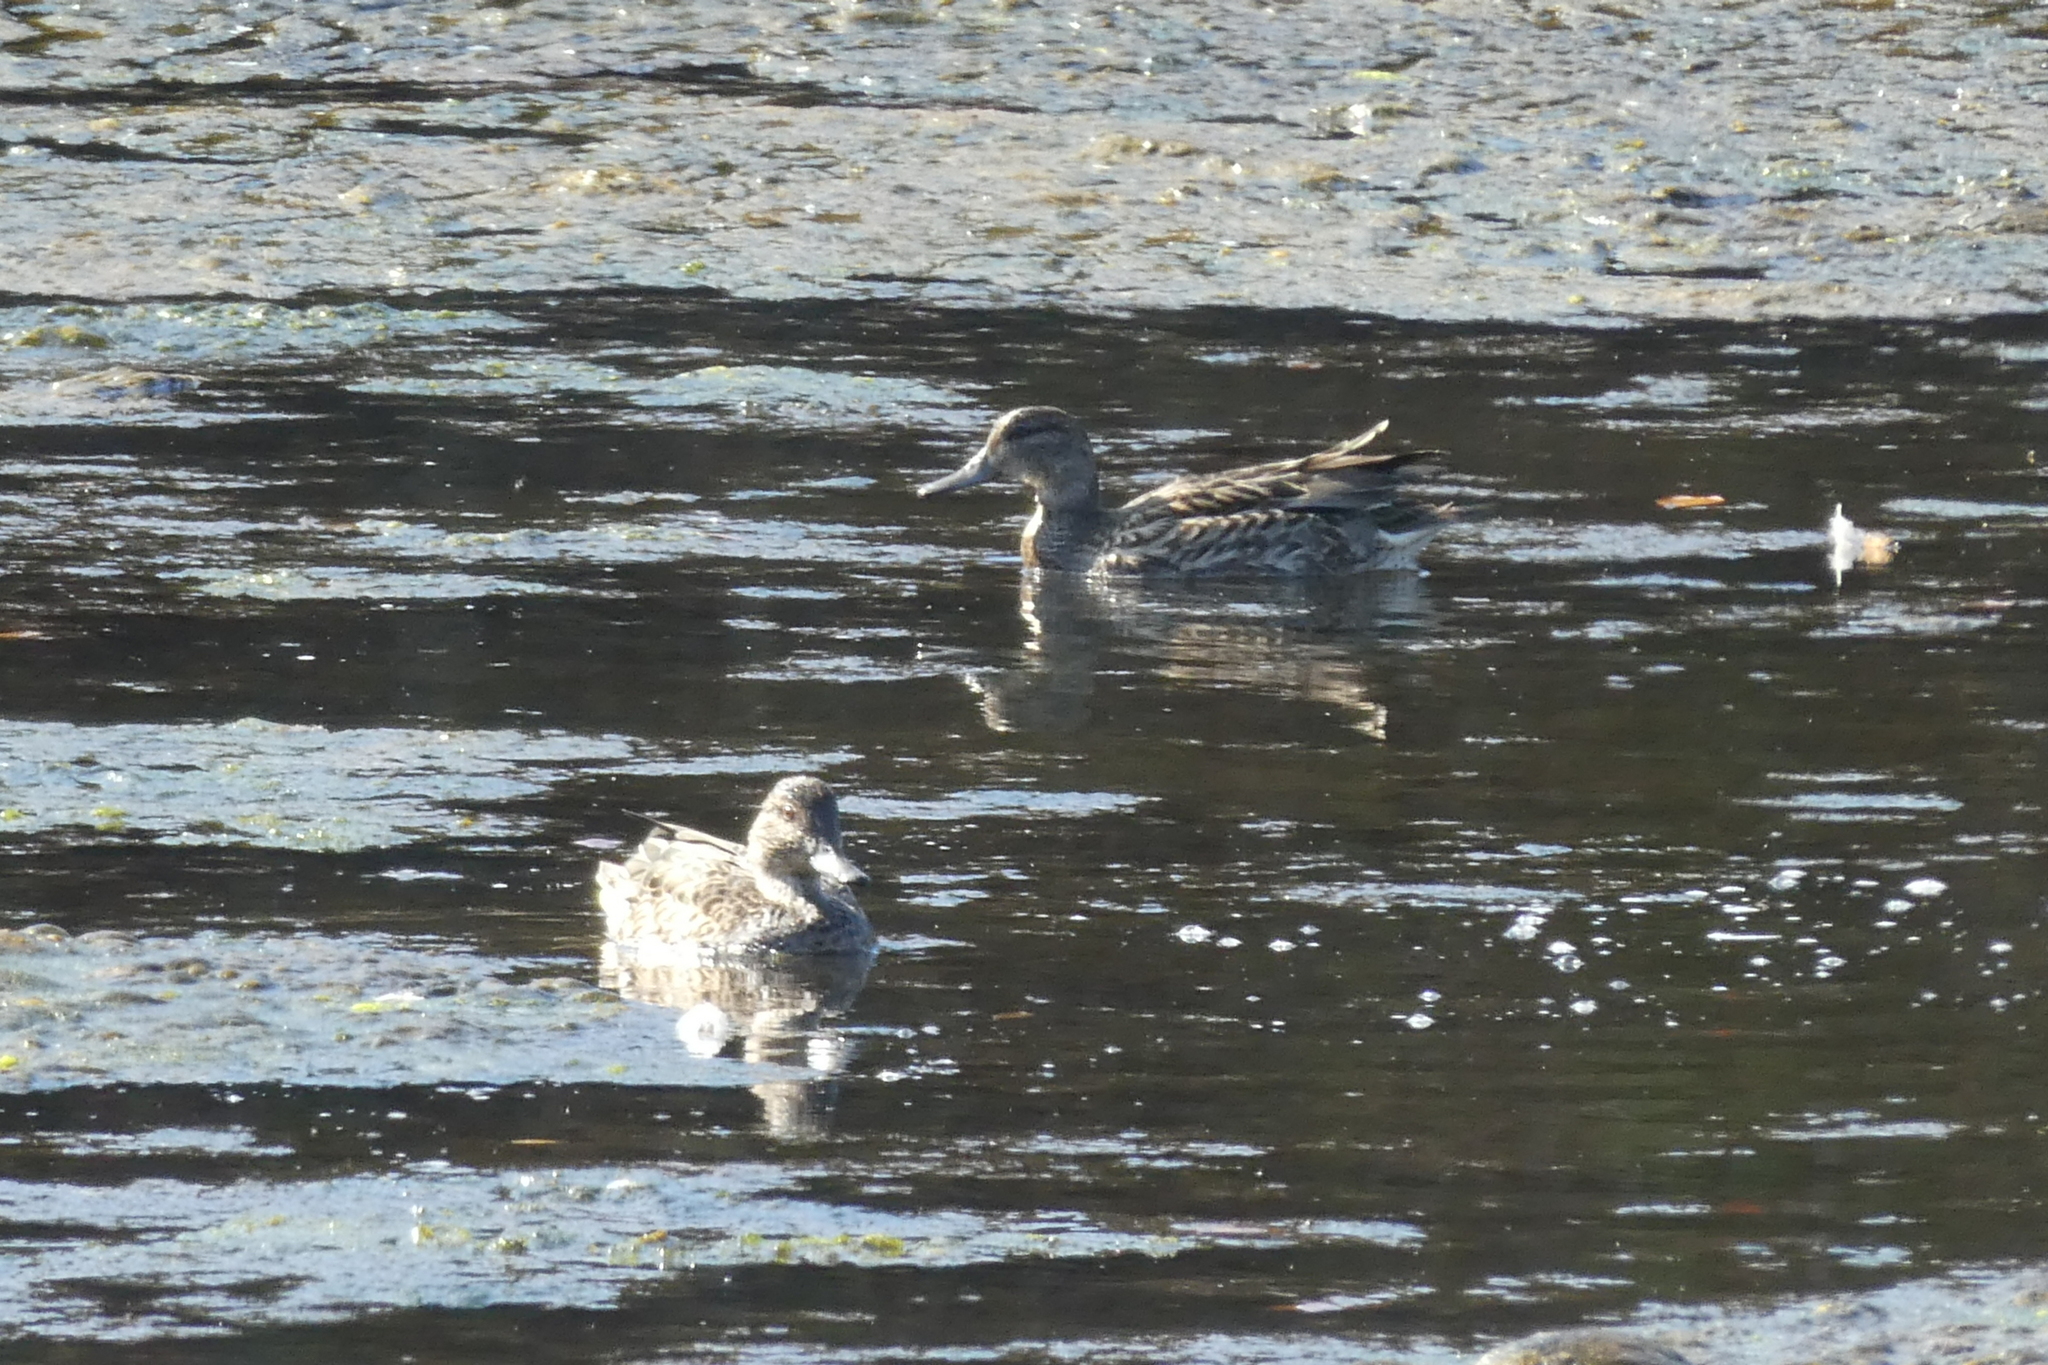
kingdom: Animalia
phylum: Chordata
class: Aves
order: Anseriformes
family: Anatidae
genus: Anas
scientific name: Anas crecca
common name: Eurasian teal
